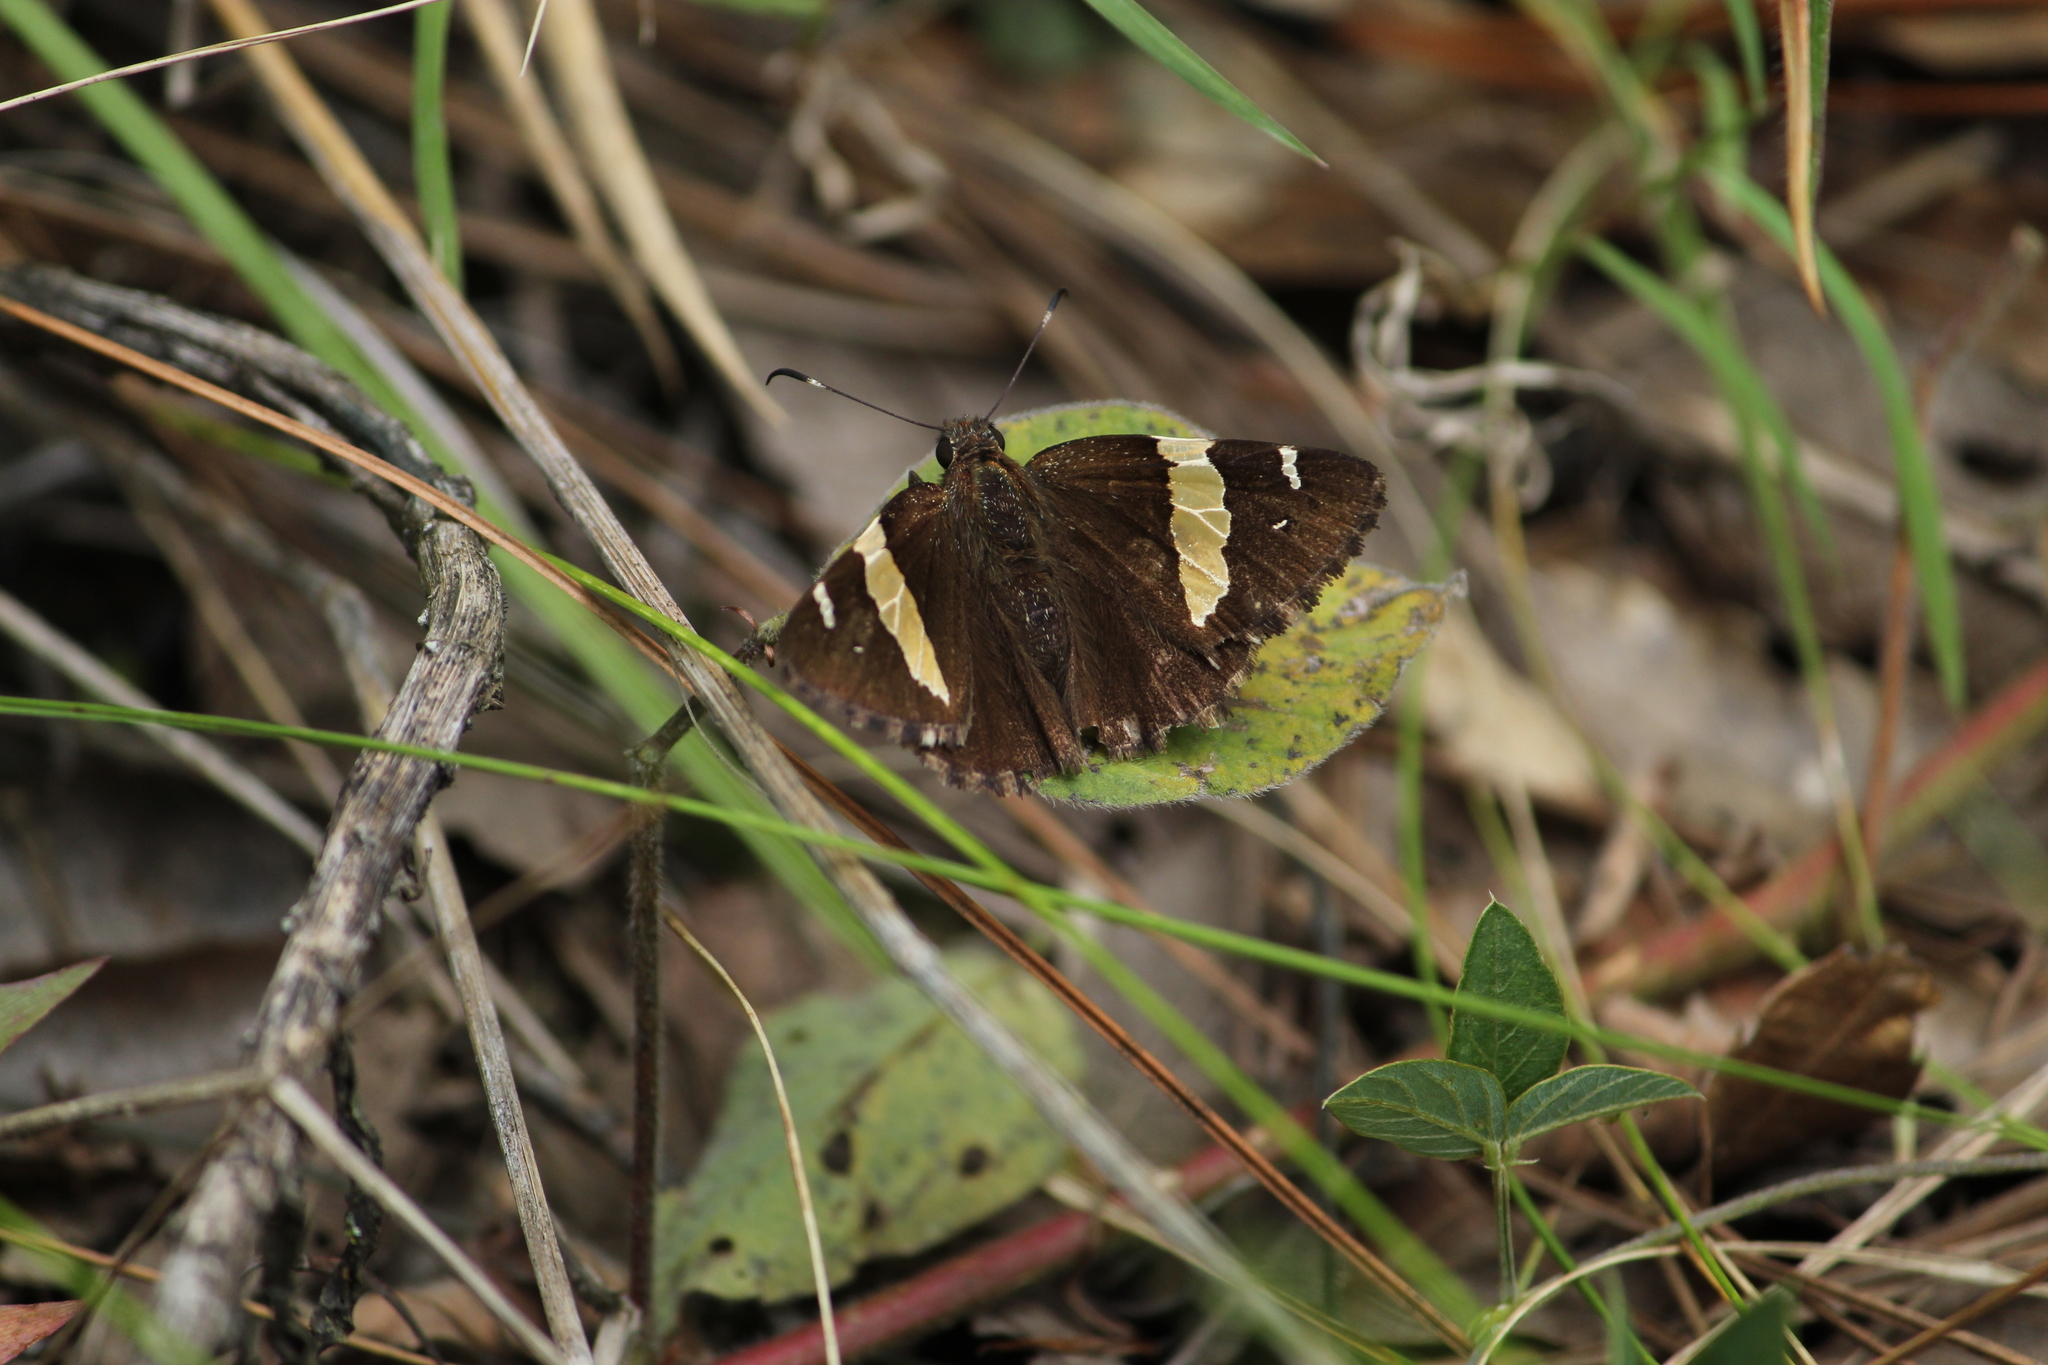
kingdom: Animalia
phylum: Arthropoda
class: Insecta
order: Lepidoptera
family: Hesperiidae
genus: Thorybes
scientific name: Thorybes pseudocellus
